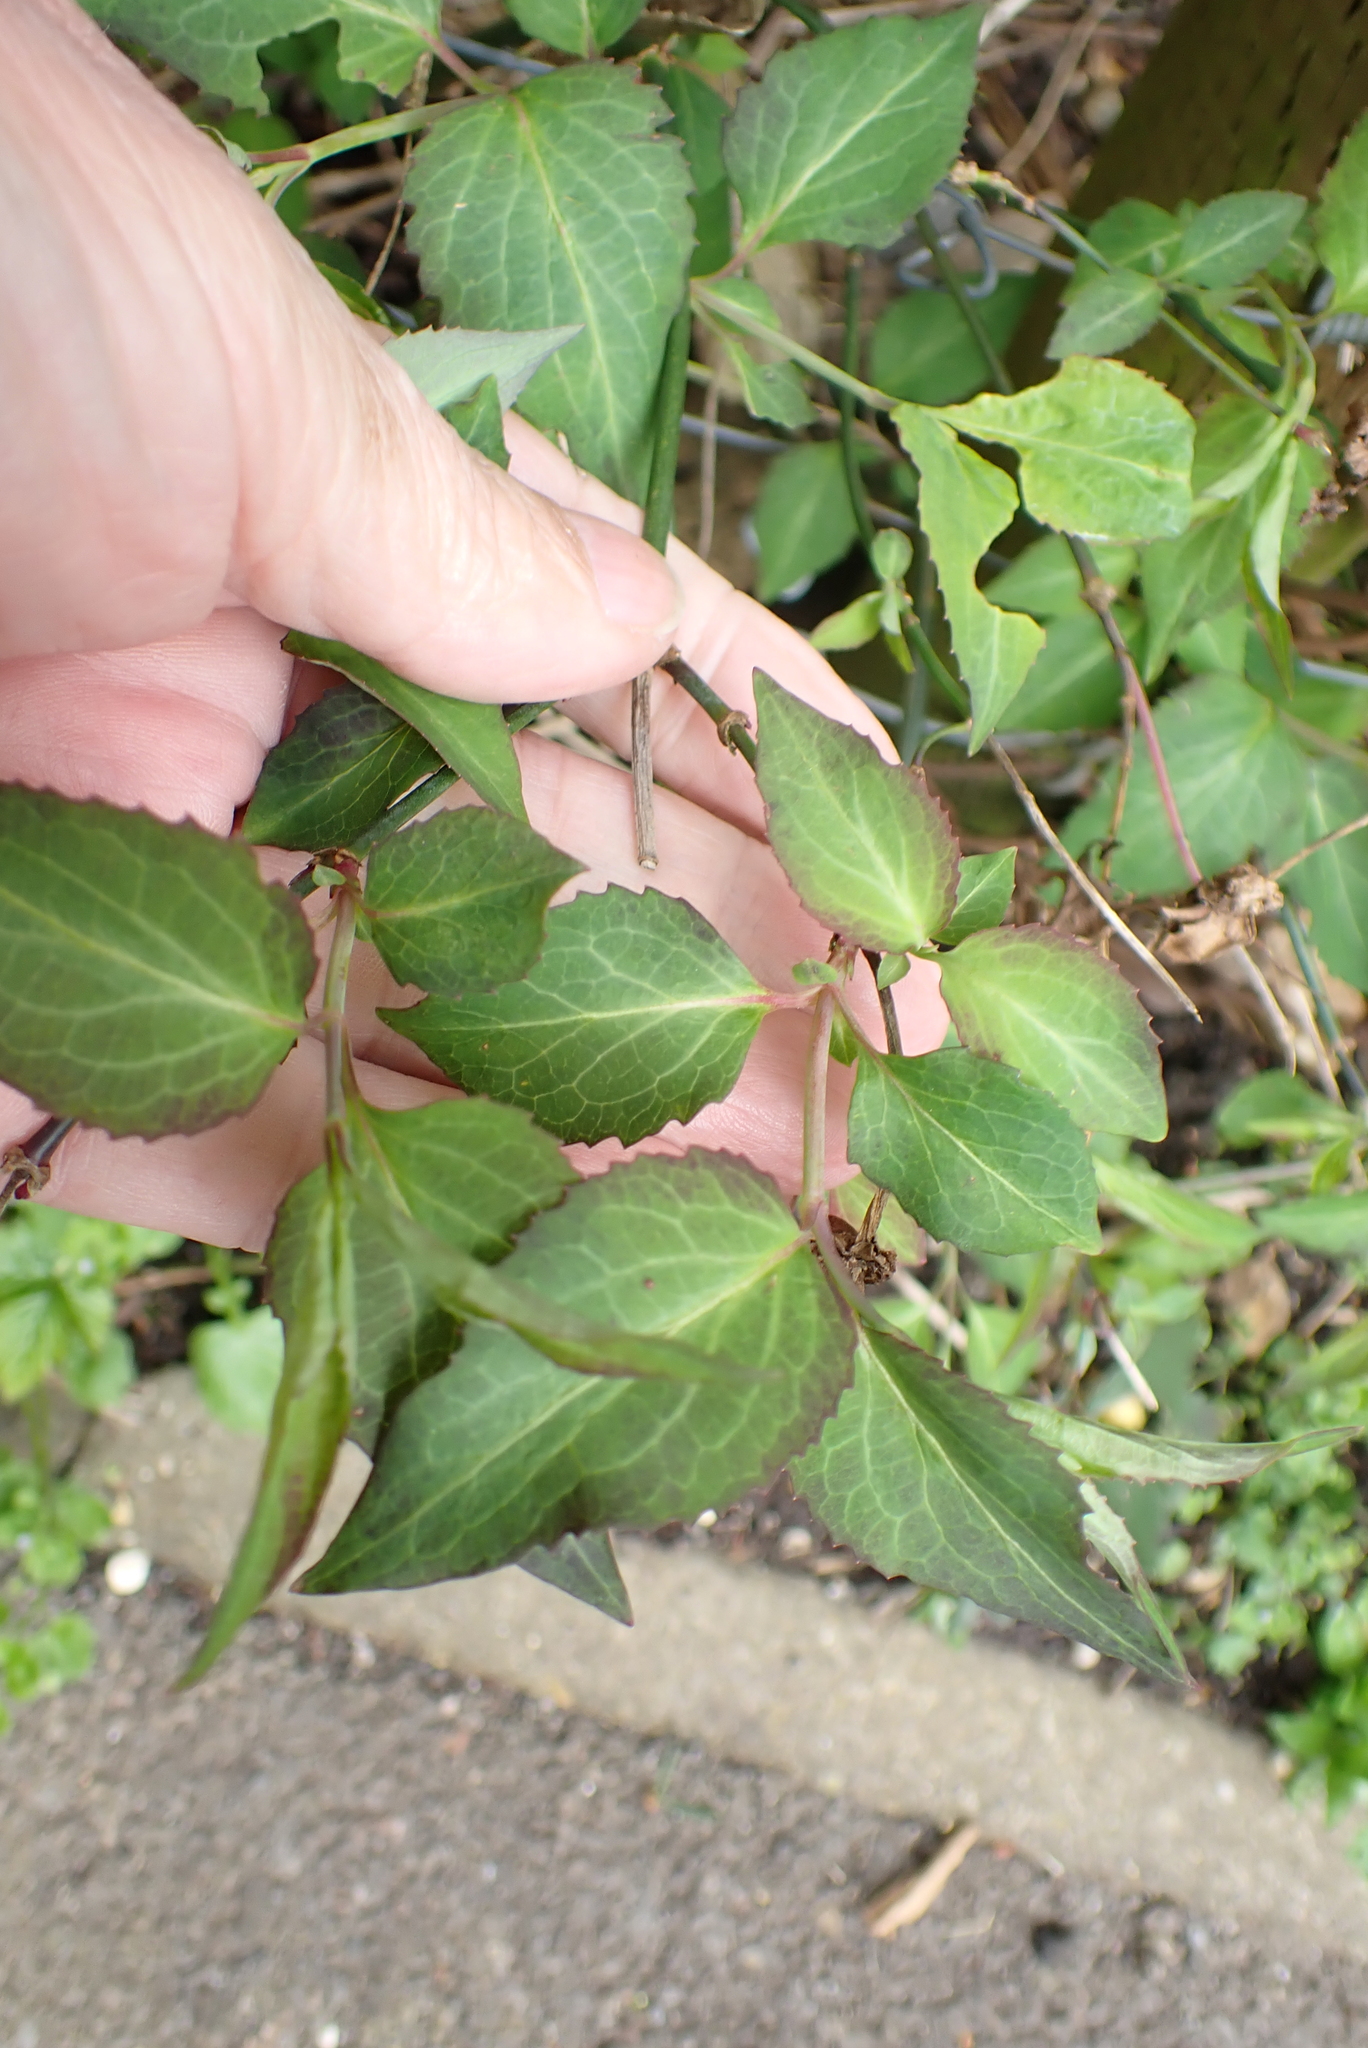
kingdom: Plantae
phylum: Tracheophyta
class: Magnoliopsida
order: Dipsacales
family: Caprifoliaceae
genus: Leycesteria
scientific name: Leycesteria formosa
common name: Himalayan honeysuckle
